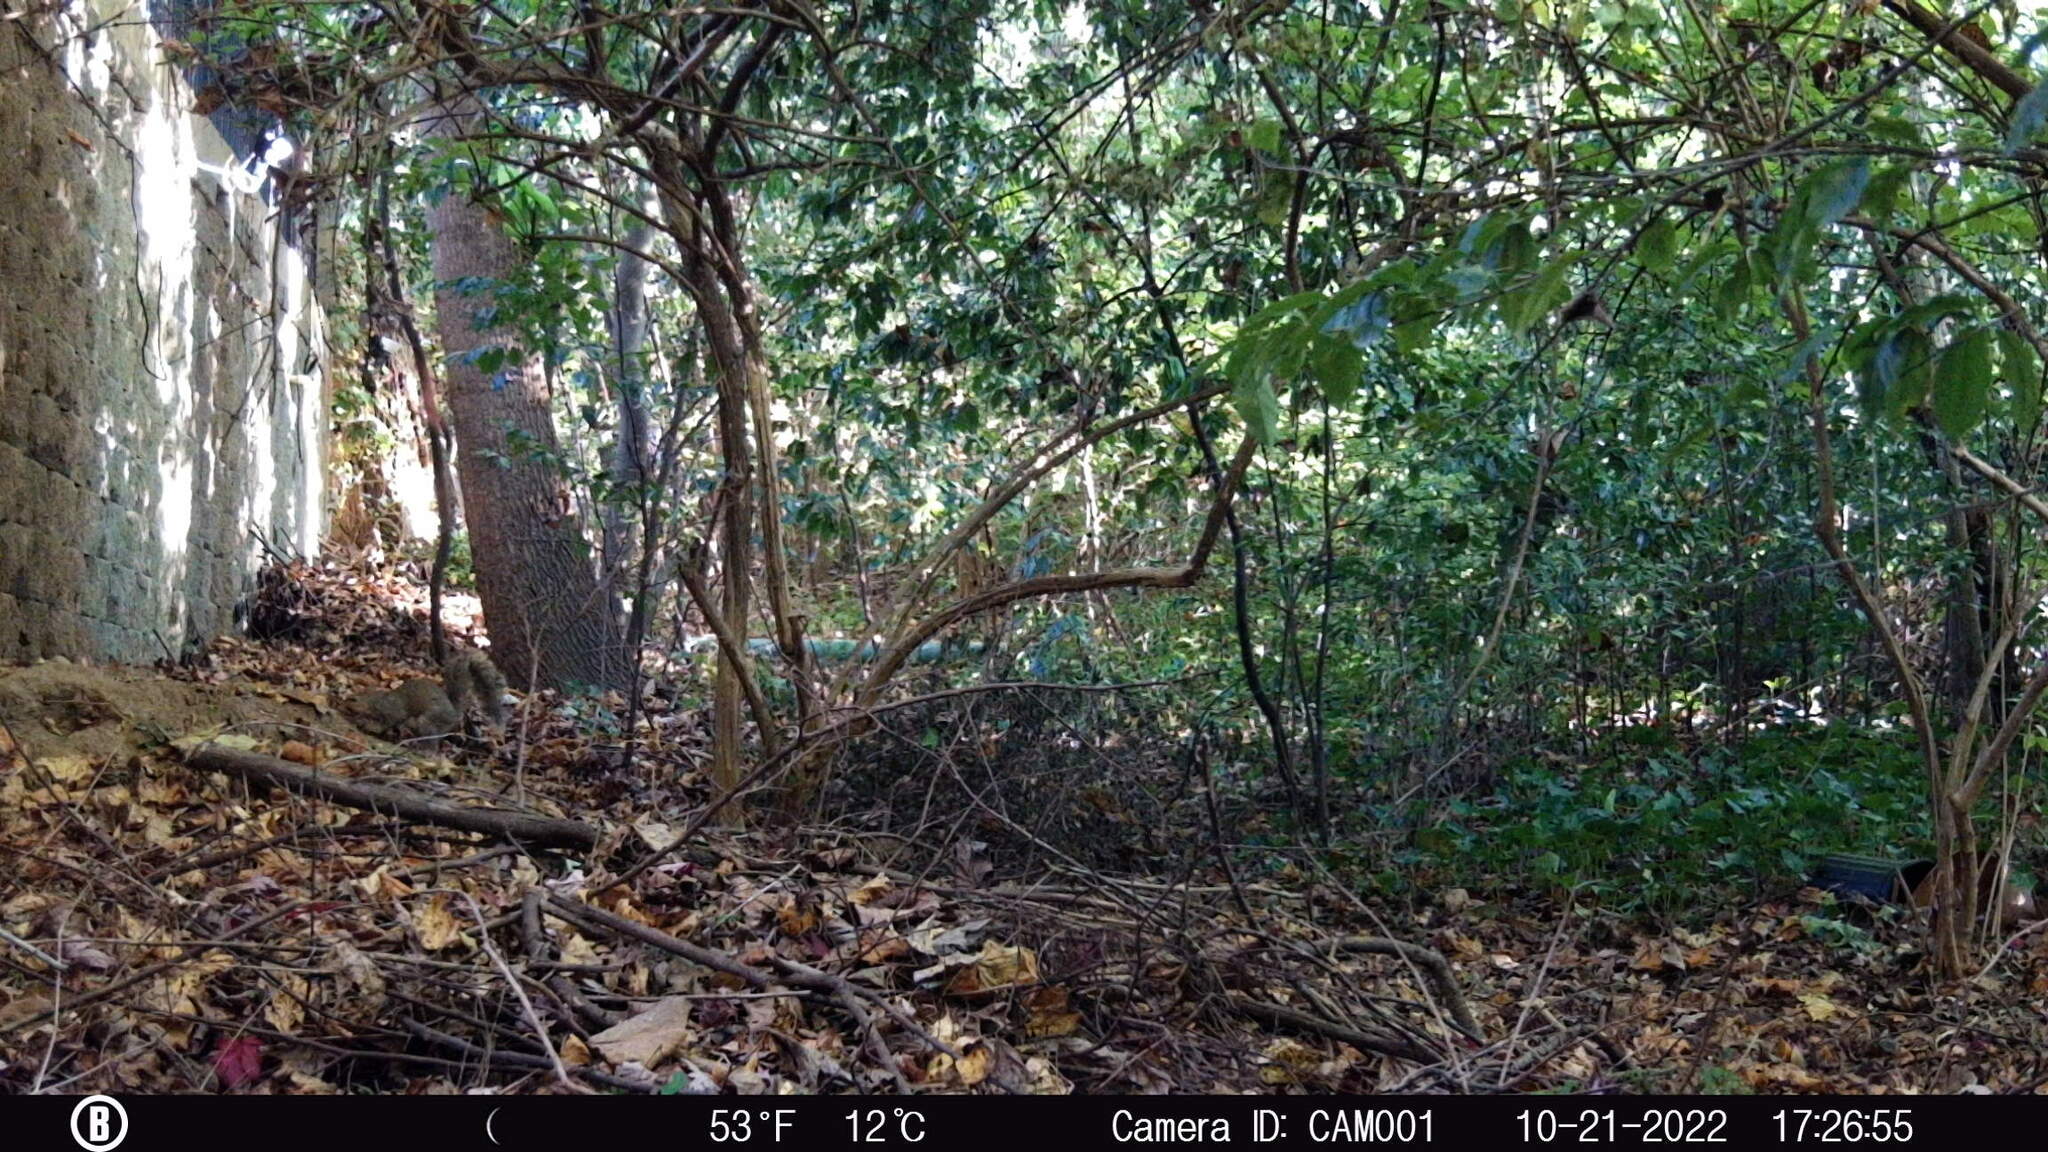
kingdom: Animalia
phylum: Chordata
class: Mammalia
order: Rodentia
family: Sciuridae
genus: Sciurus
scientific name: Sciurus carolinensis
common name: Eastern gray squirrel
